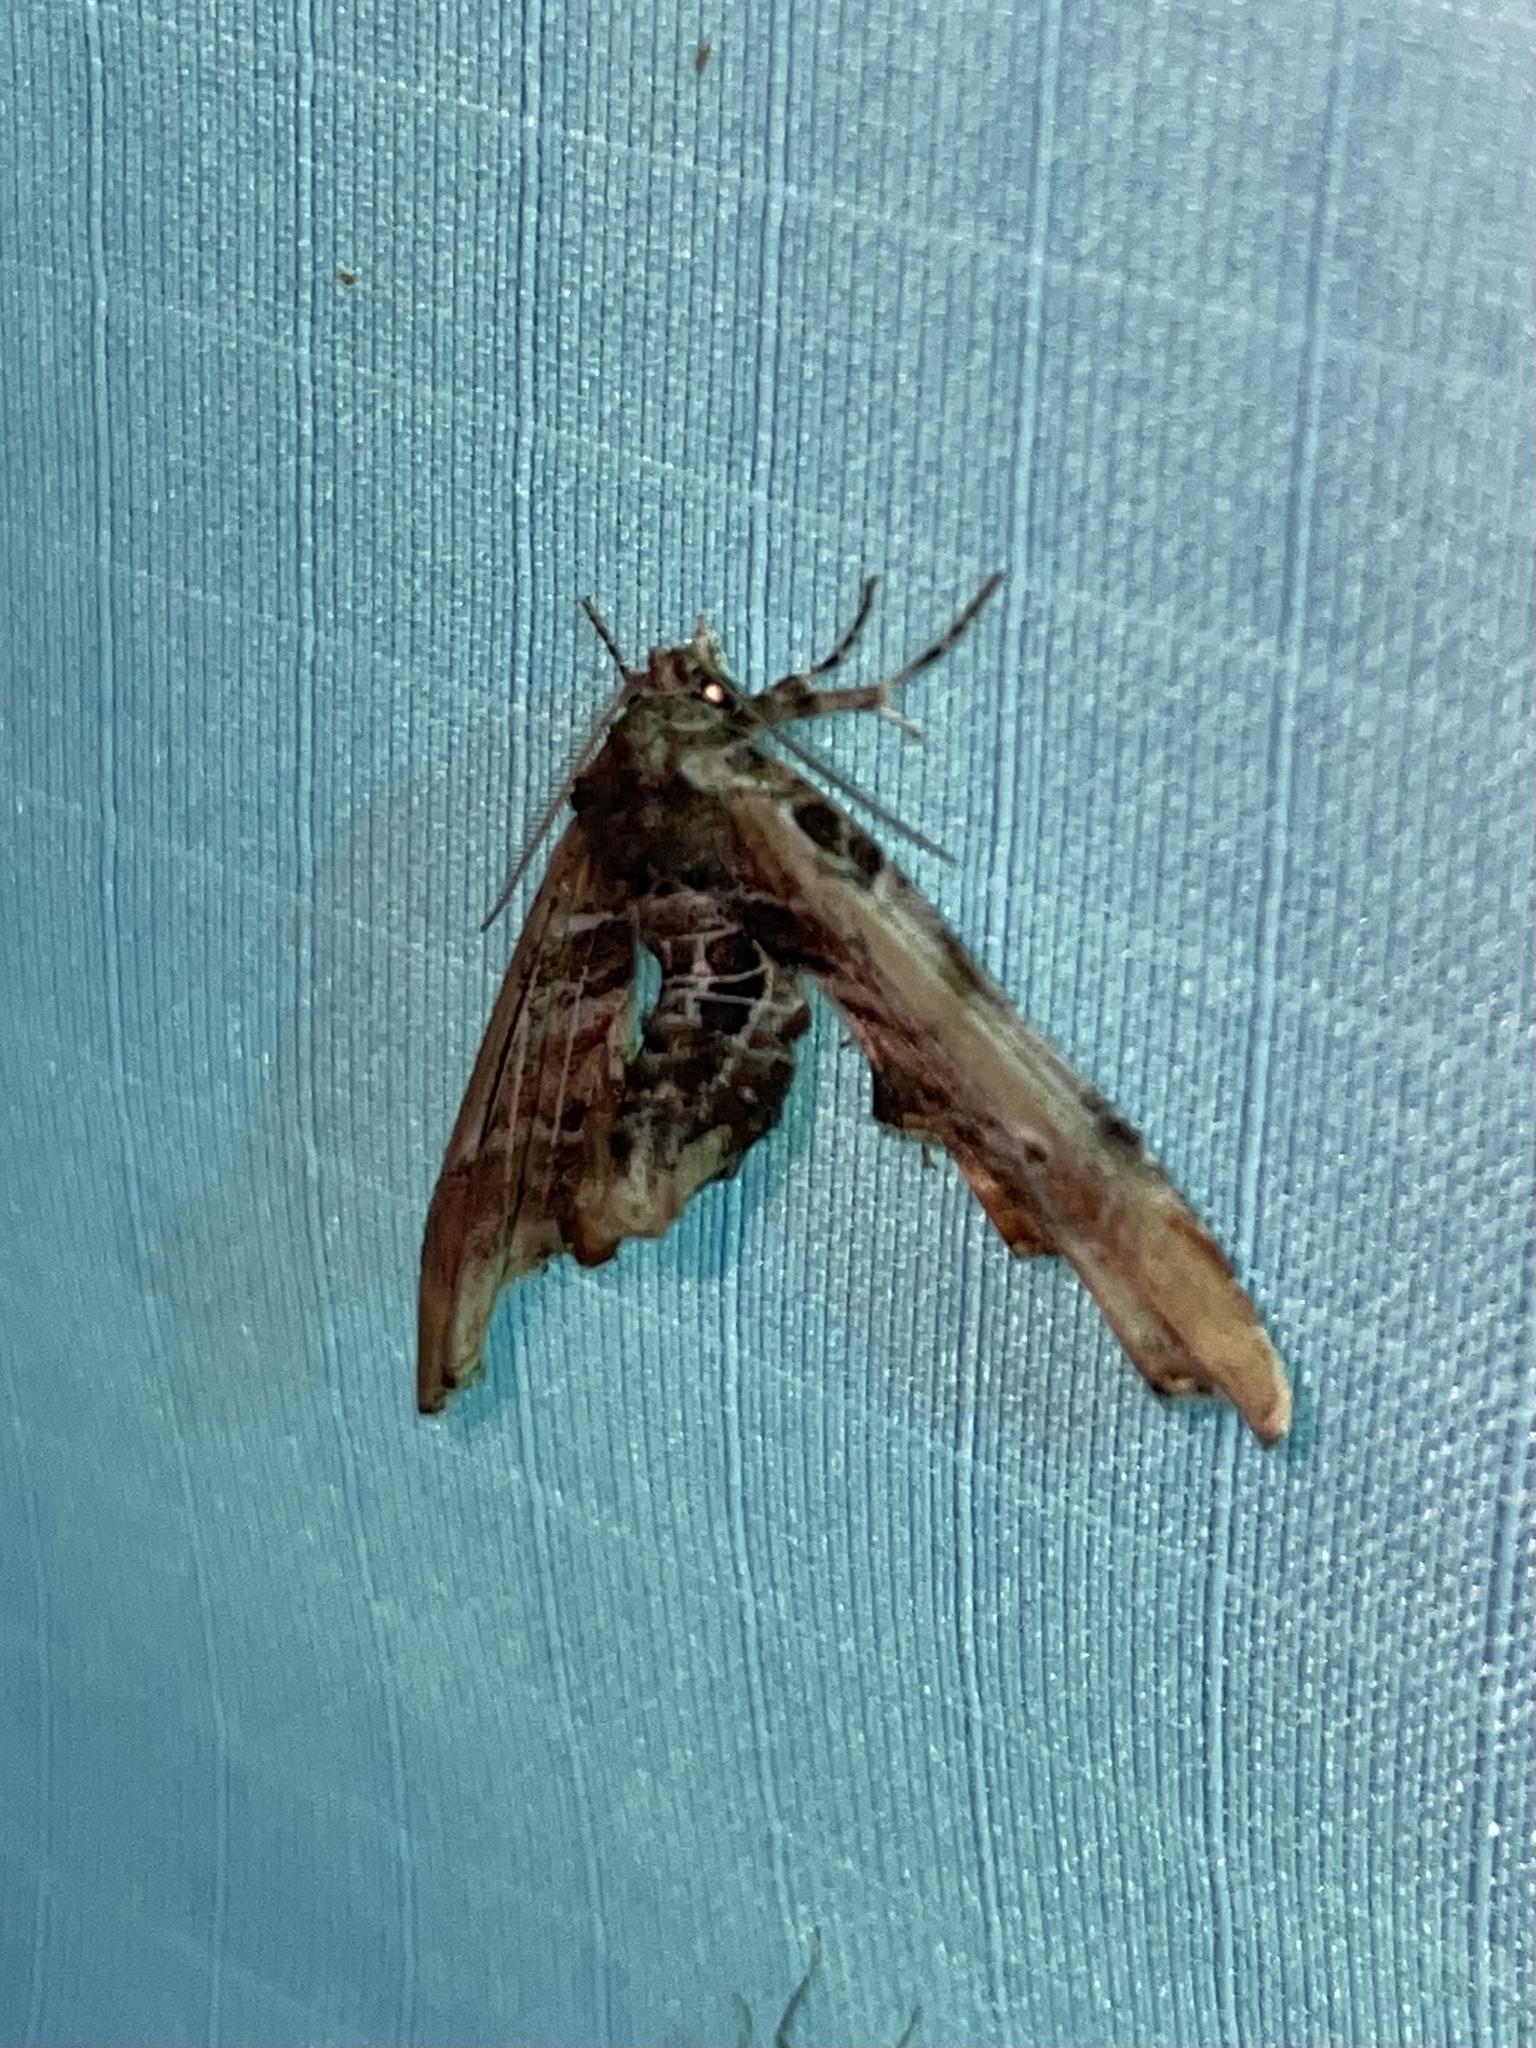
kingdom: Animalia
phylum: Arthropoda
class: Insecta
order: Lepidoptera
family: Euteliidae
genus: Marathyssa
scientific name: Marathyssa basalis
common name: Light marathyssa moth
